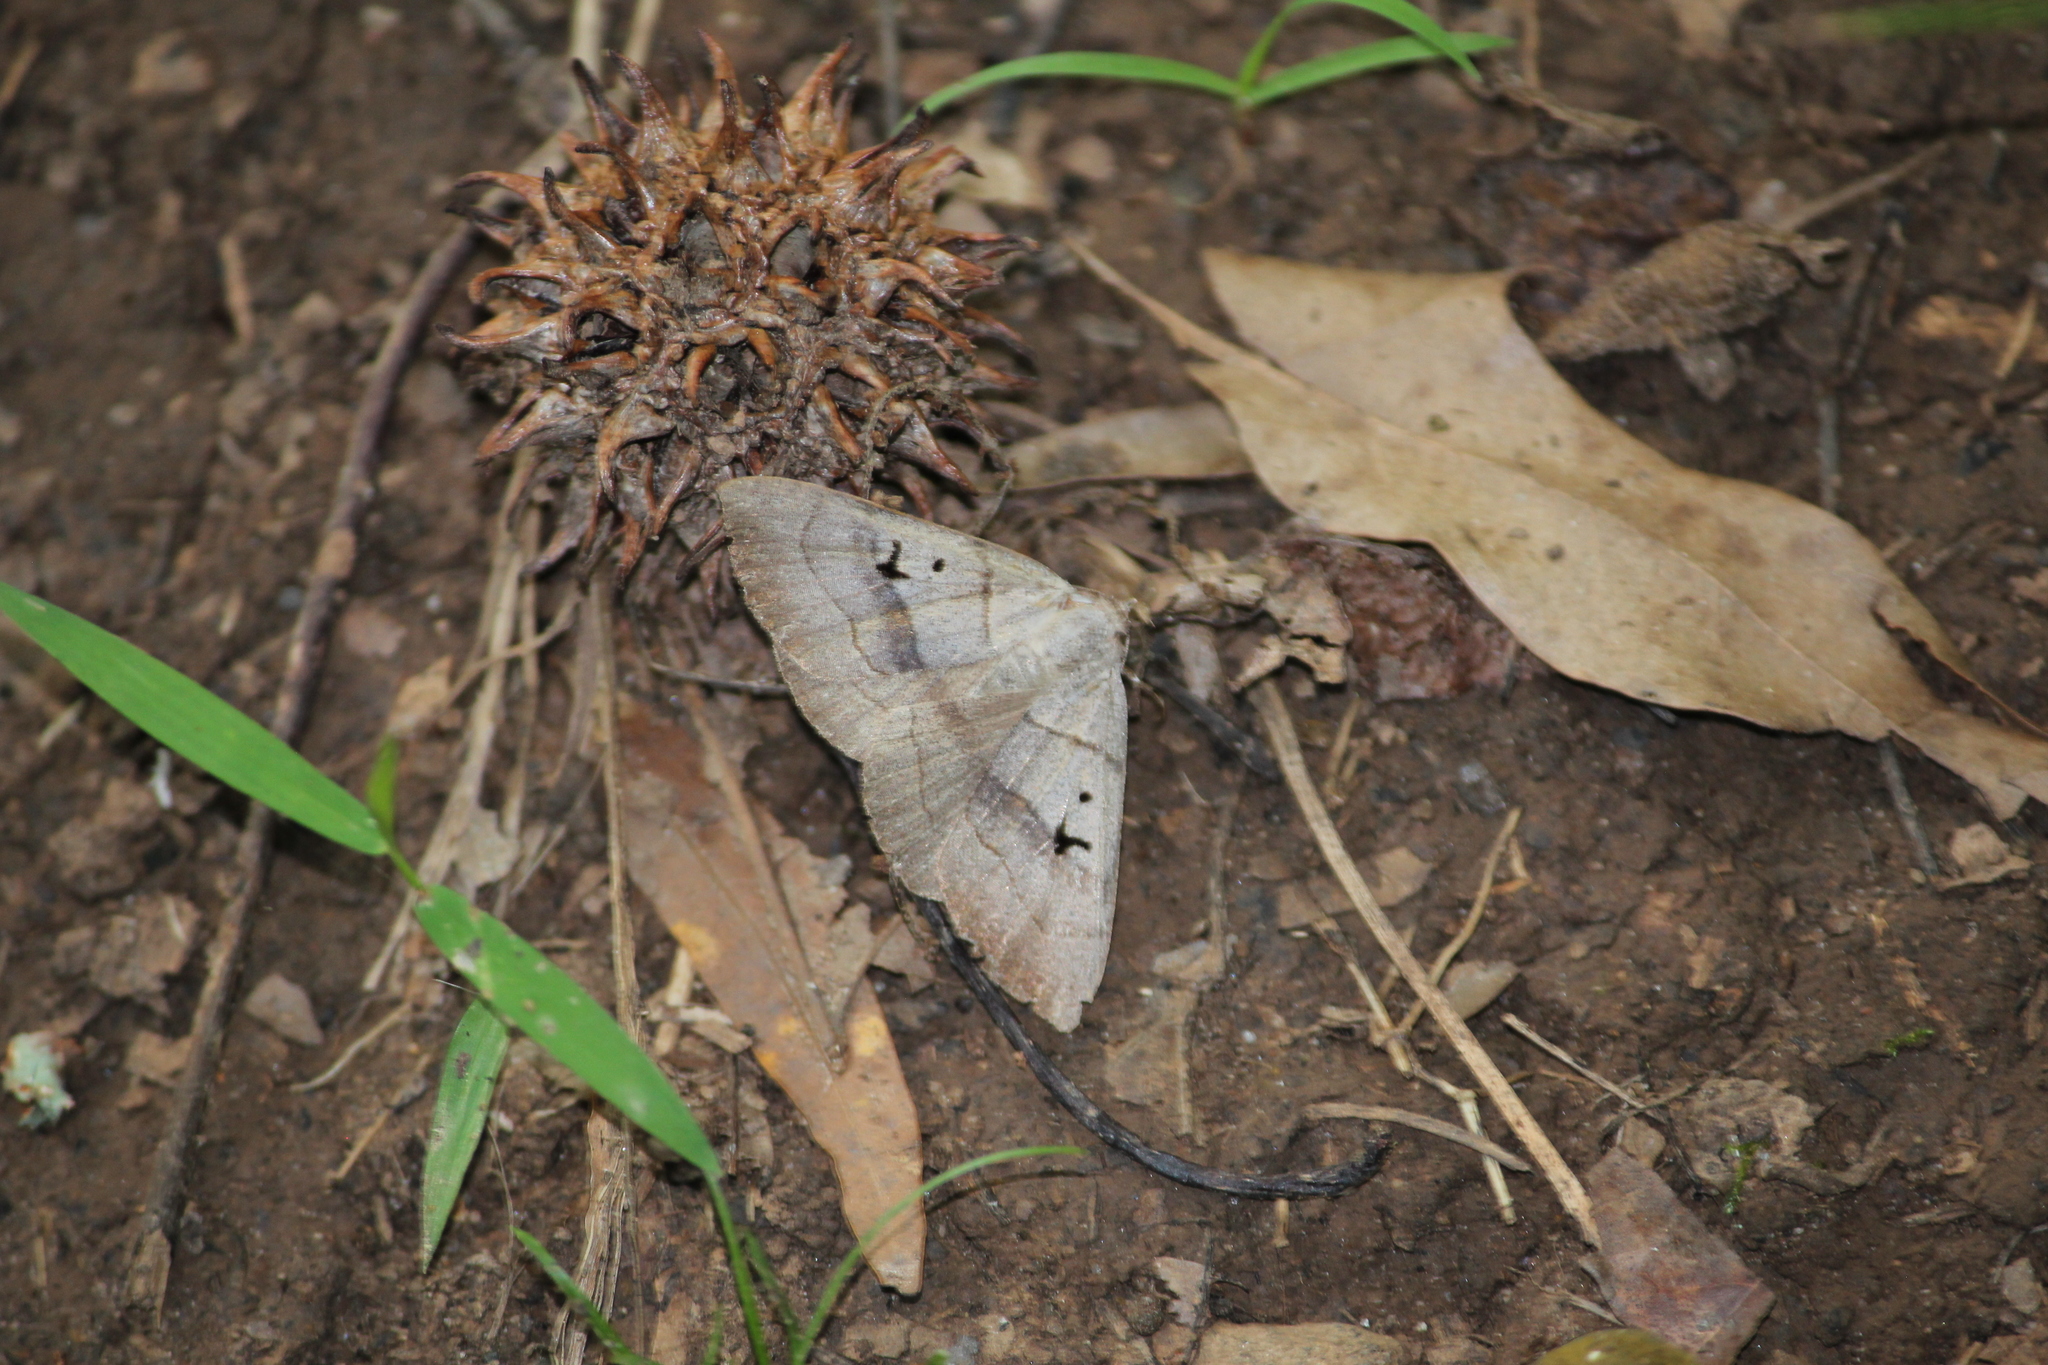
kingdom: Animalia
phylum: Arthropoda
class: Insecta
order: Lepidoptera
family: Erebidae
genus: Panopoda
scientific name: Panopoda carneicosta
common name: Brown panopoda moth
